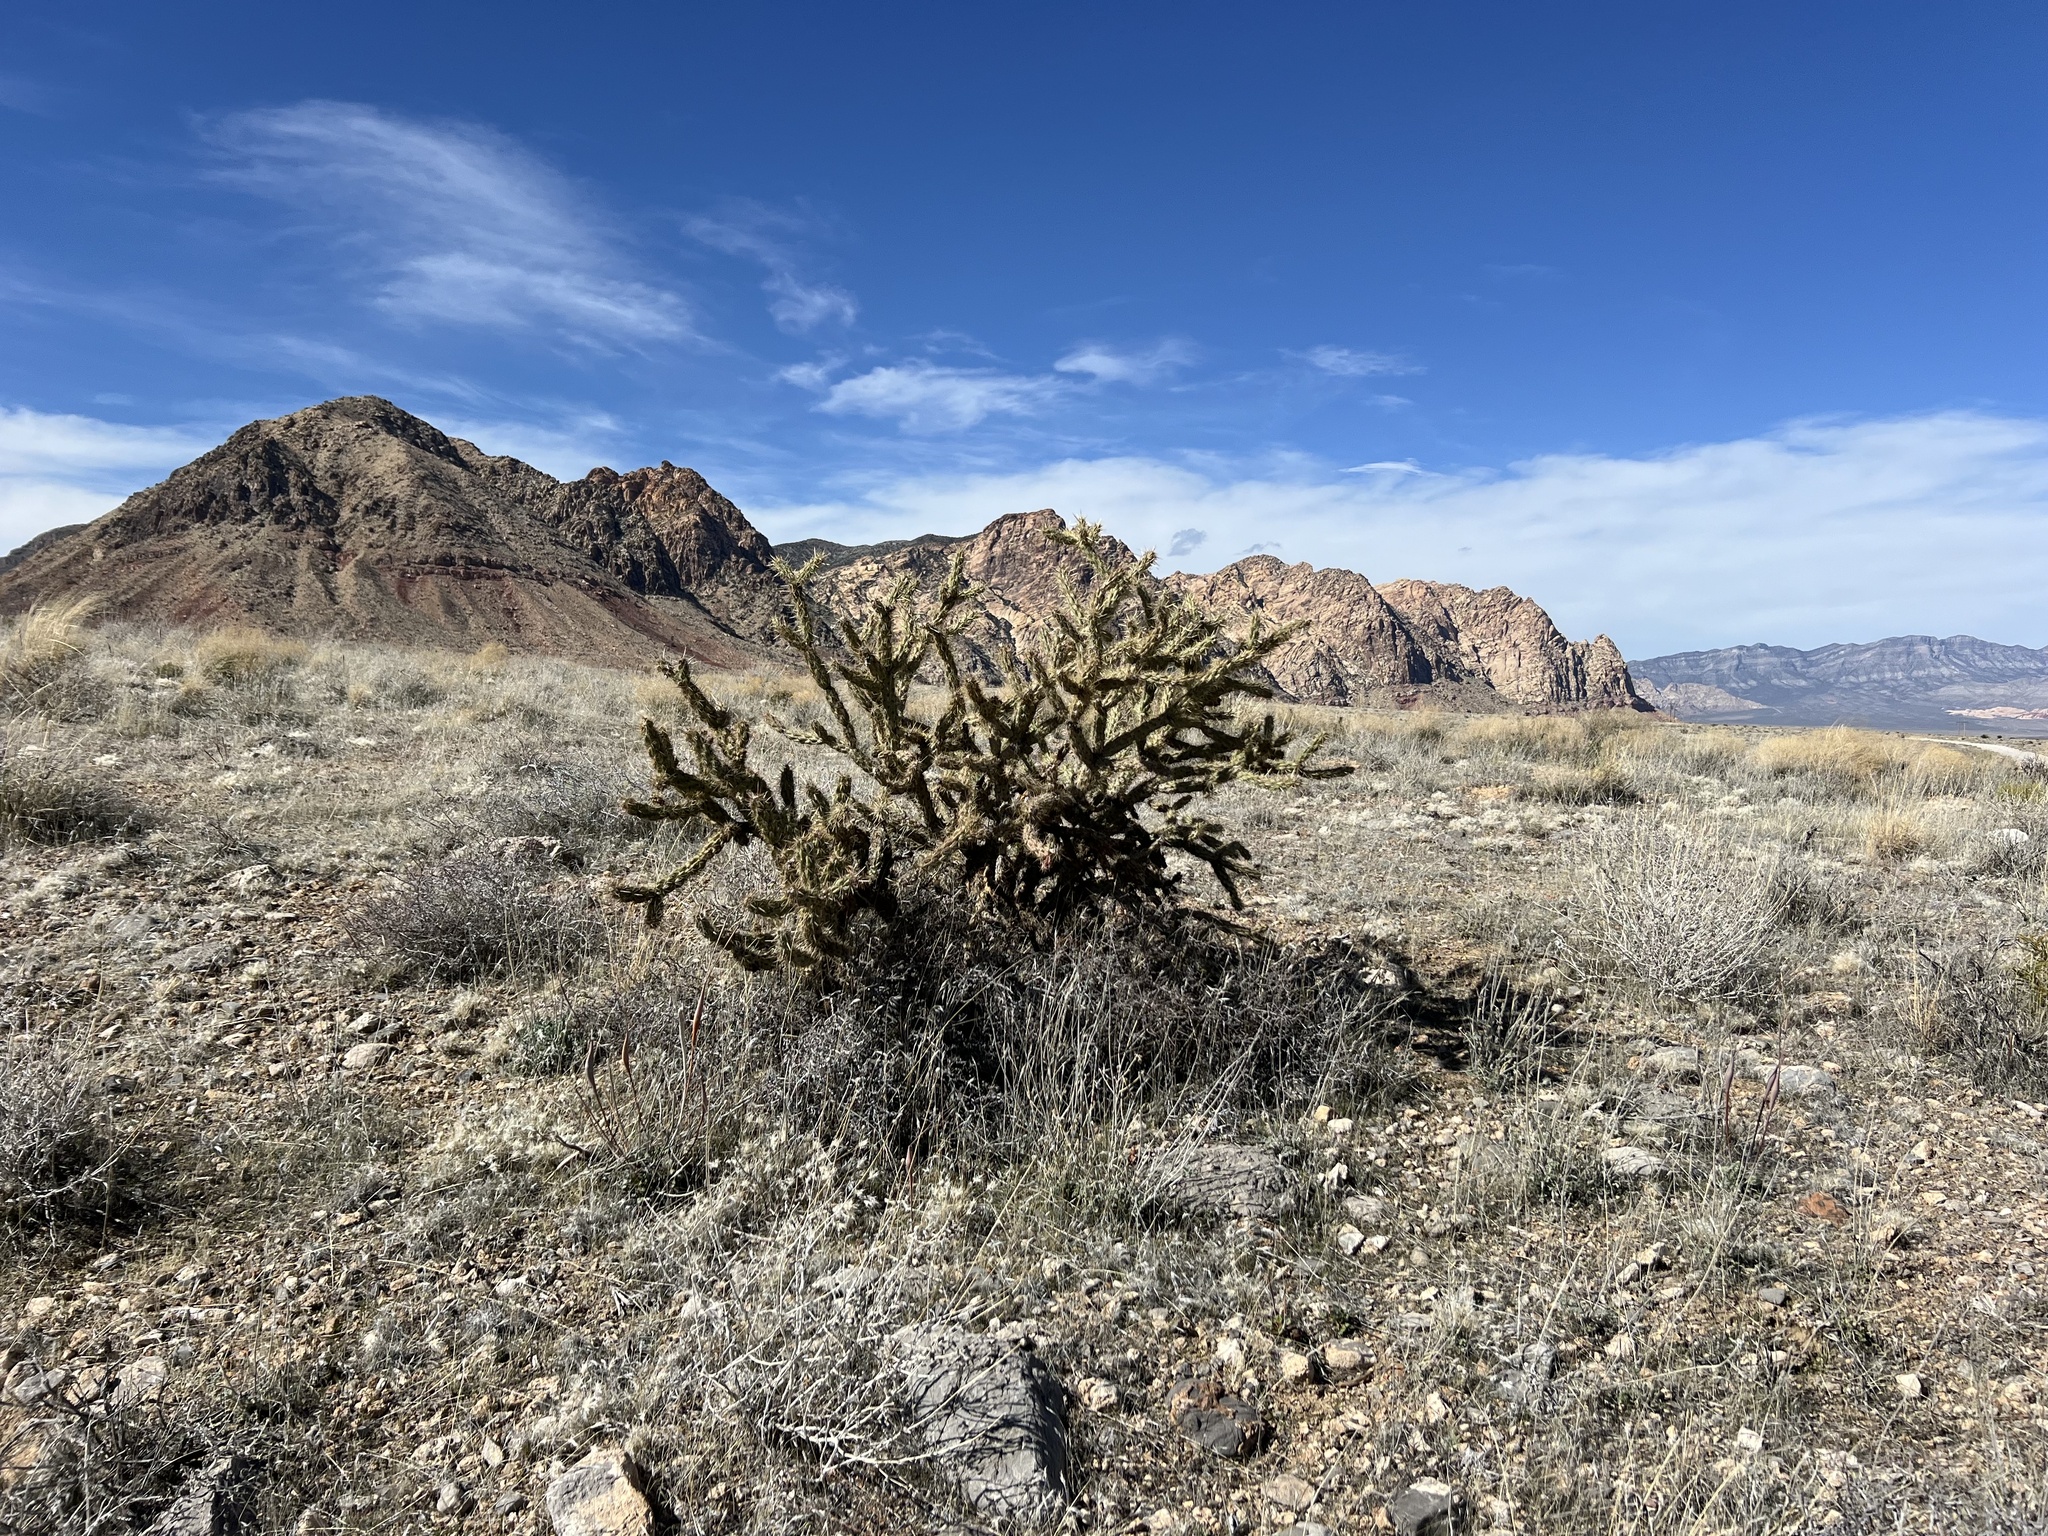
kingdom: Plantae
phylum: Tracheophyta
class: Magnoliopsida
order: Caryophyllales
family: Cactaceae
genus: Cylindropuntia
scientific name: Cylindropuntia acanthocarpa
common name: Buckhorn cholla
